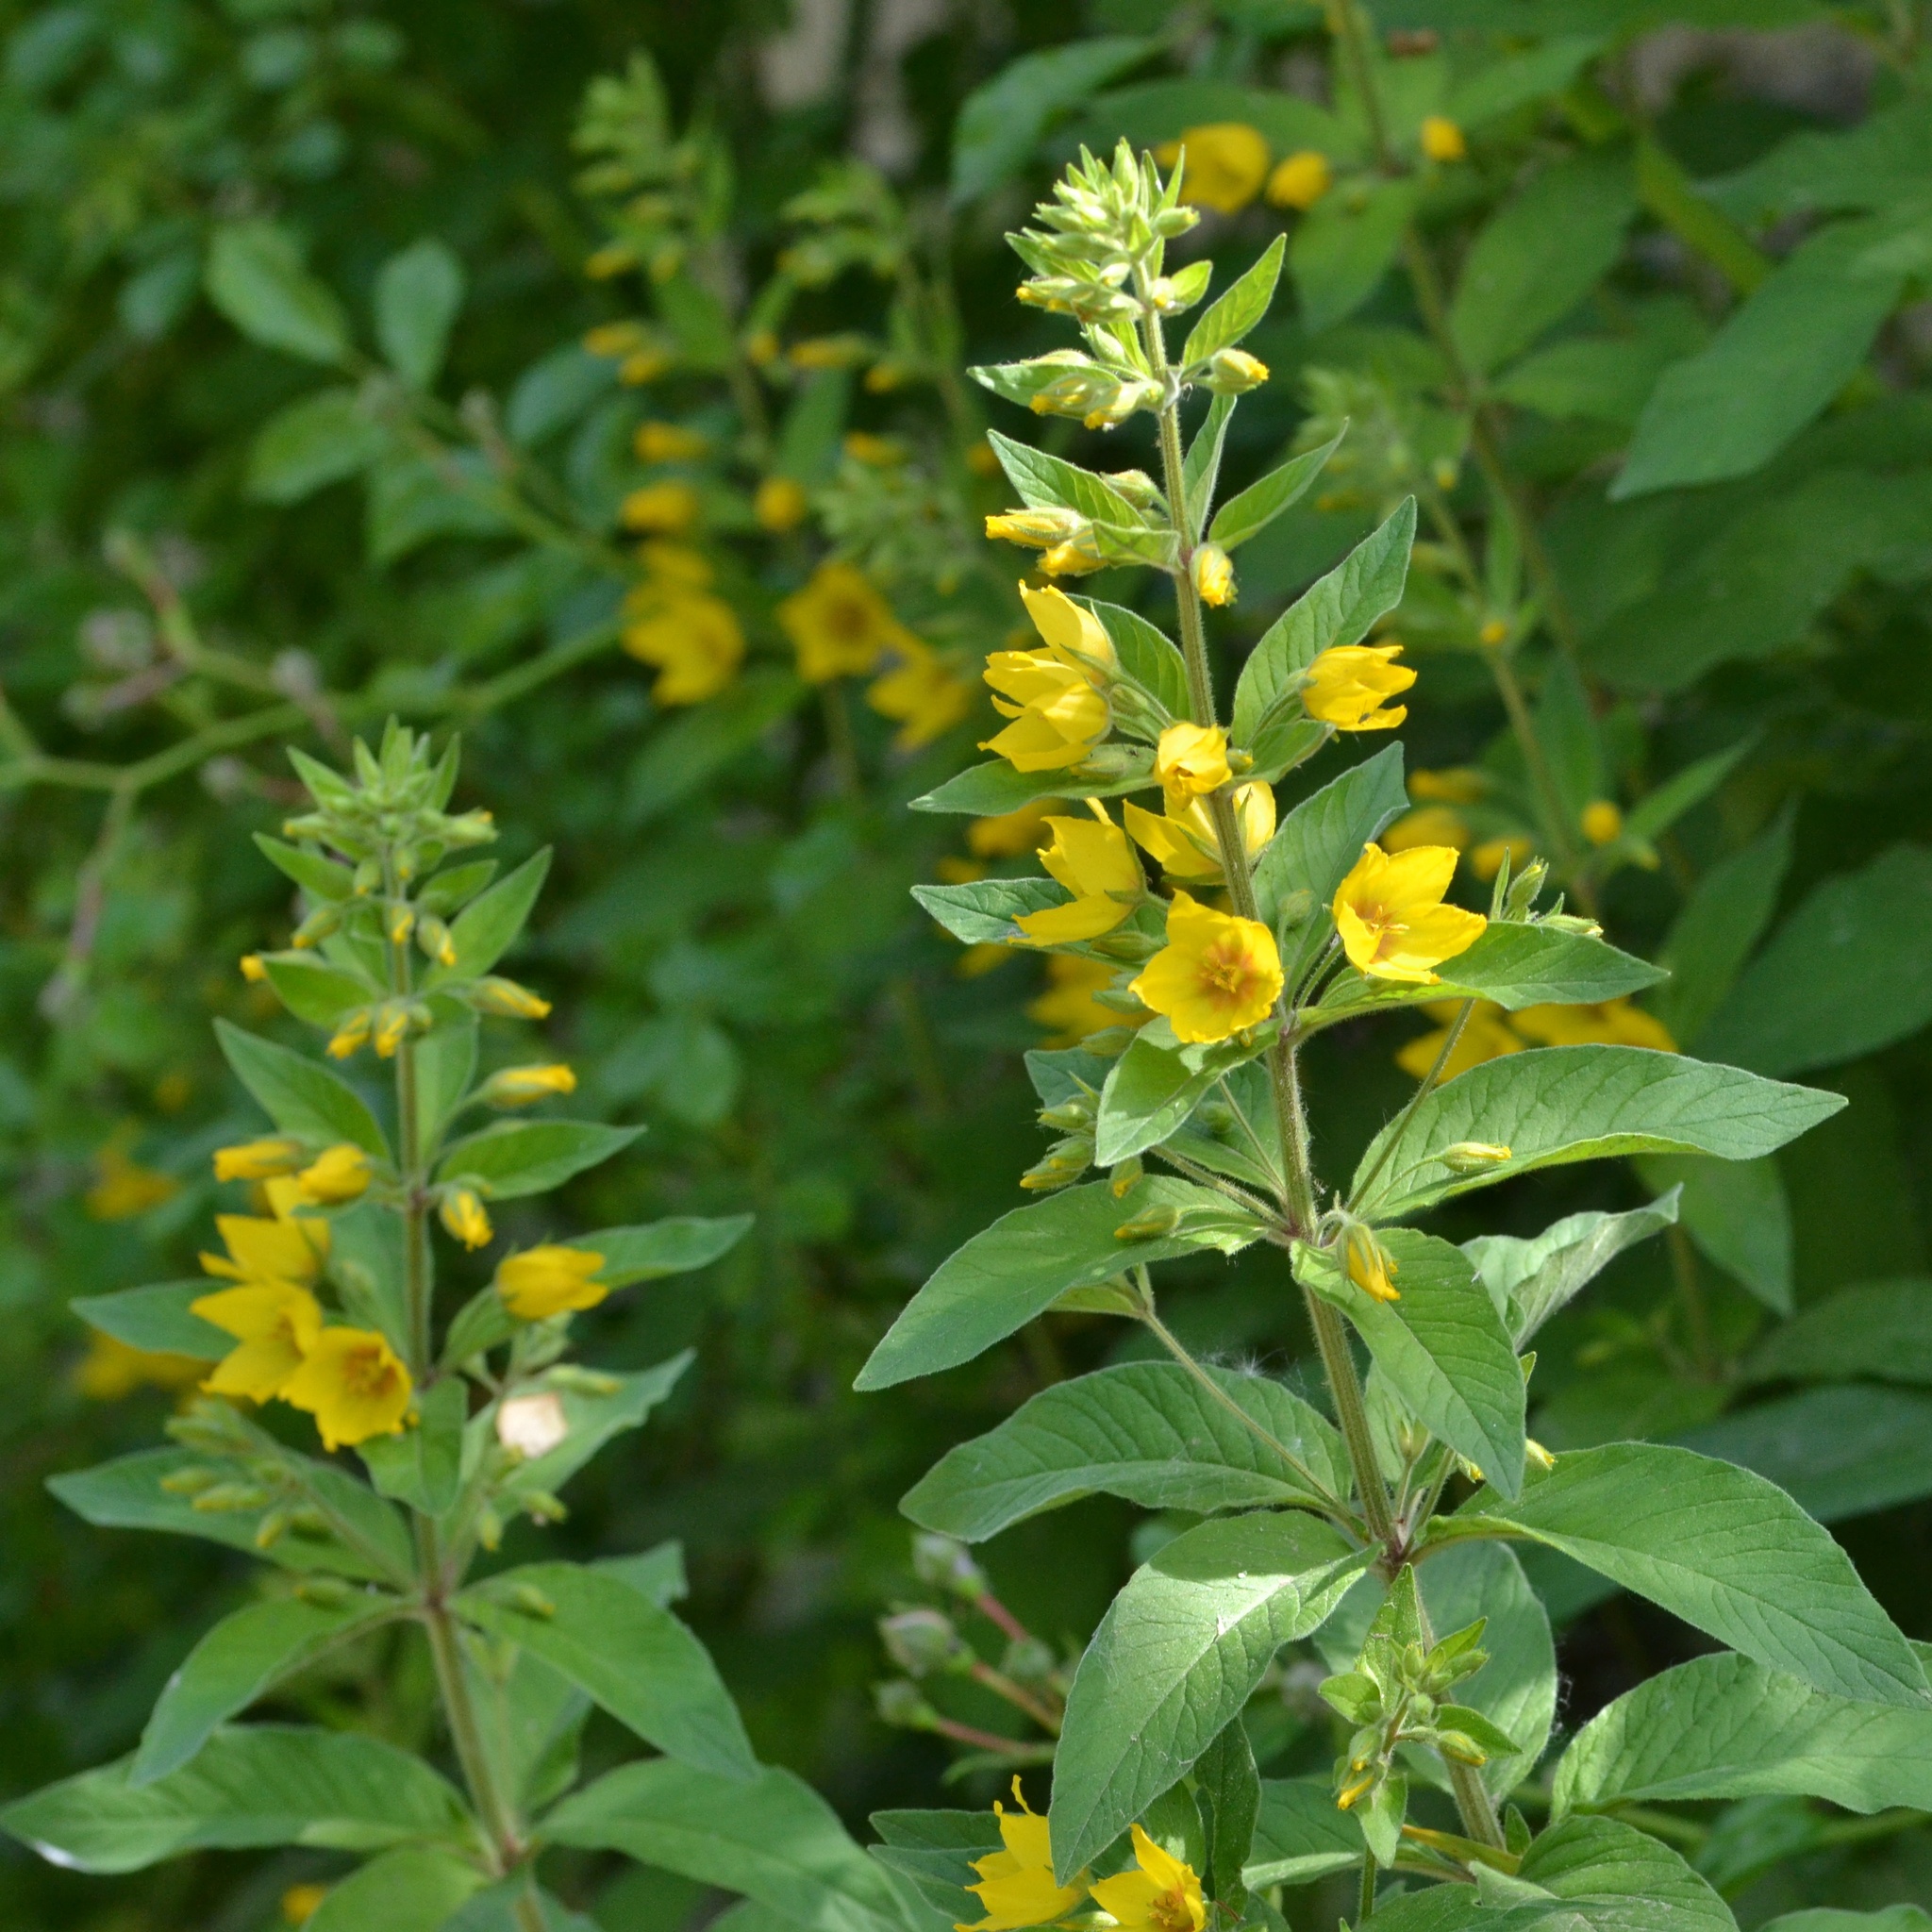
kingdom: Plantae
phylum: Tracheophyta
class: Magnoliopsida
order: Ericales
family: Primulaceae
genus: Lysimachia
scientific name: Lysimachia punctata
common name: Dotted loosestrife
